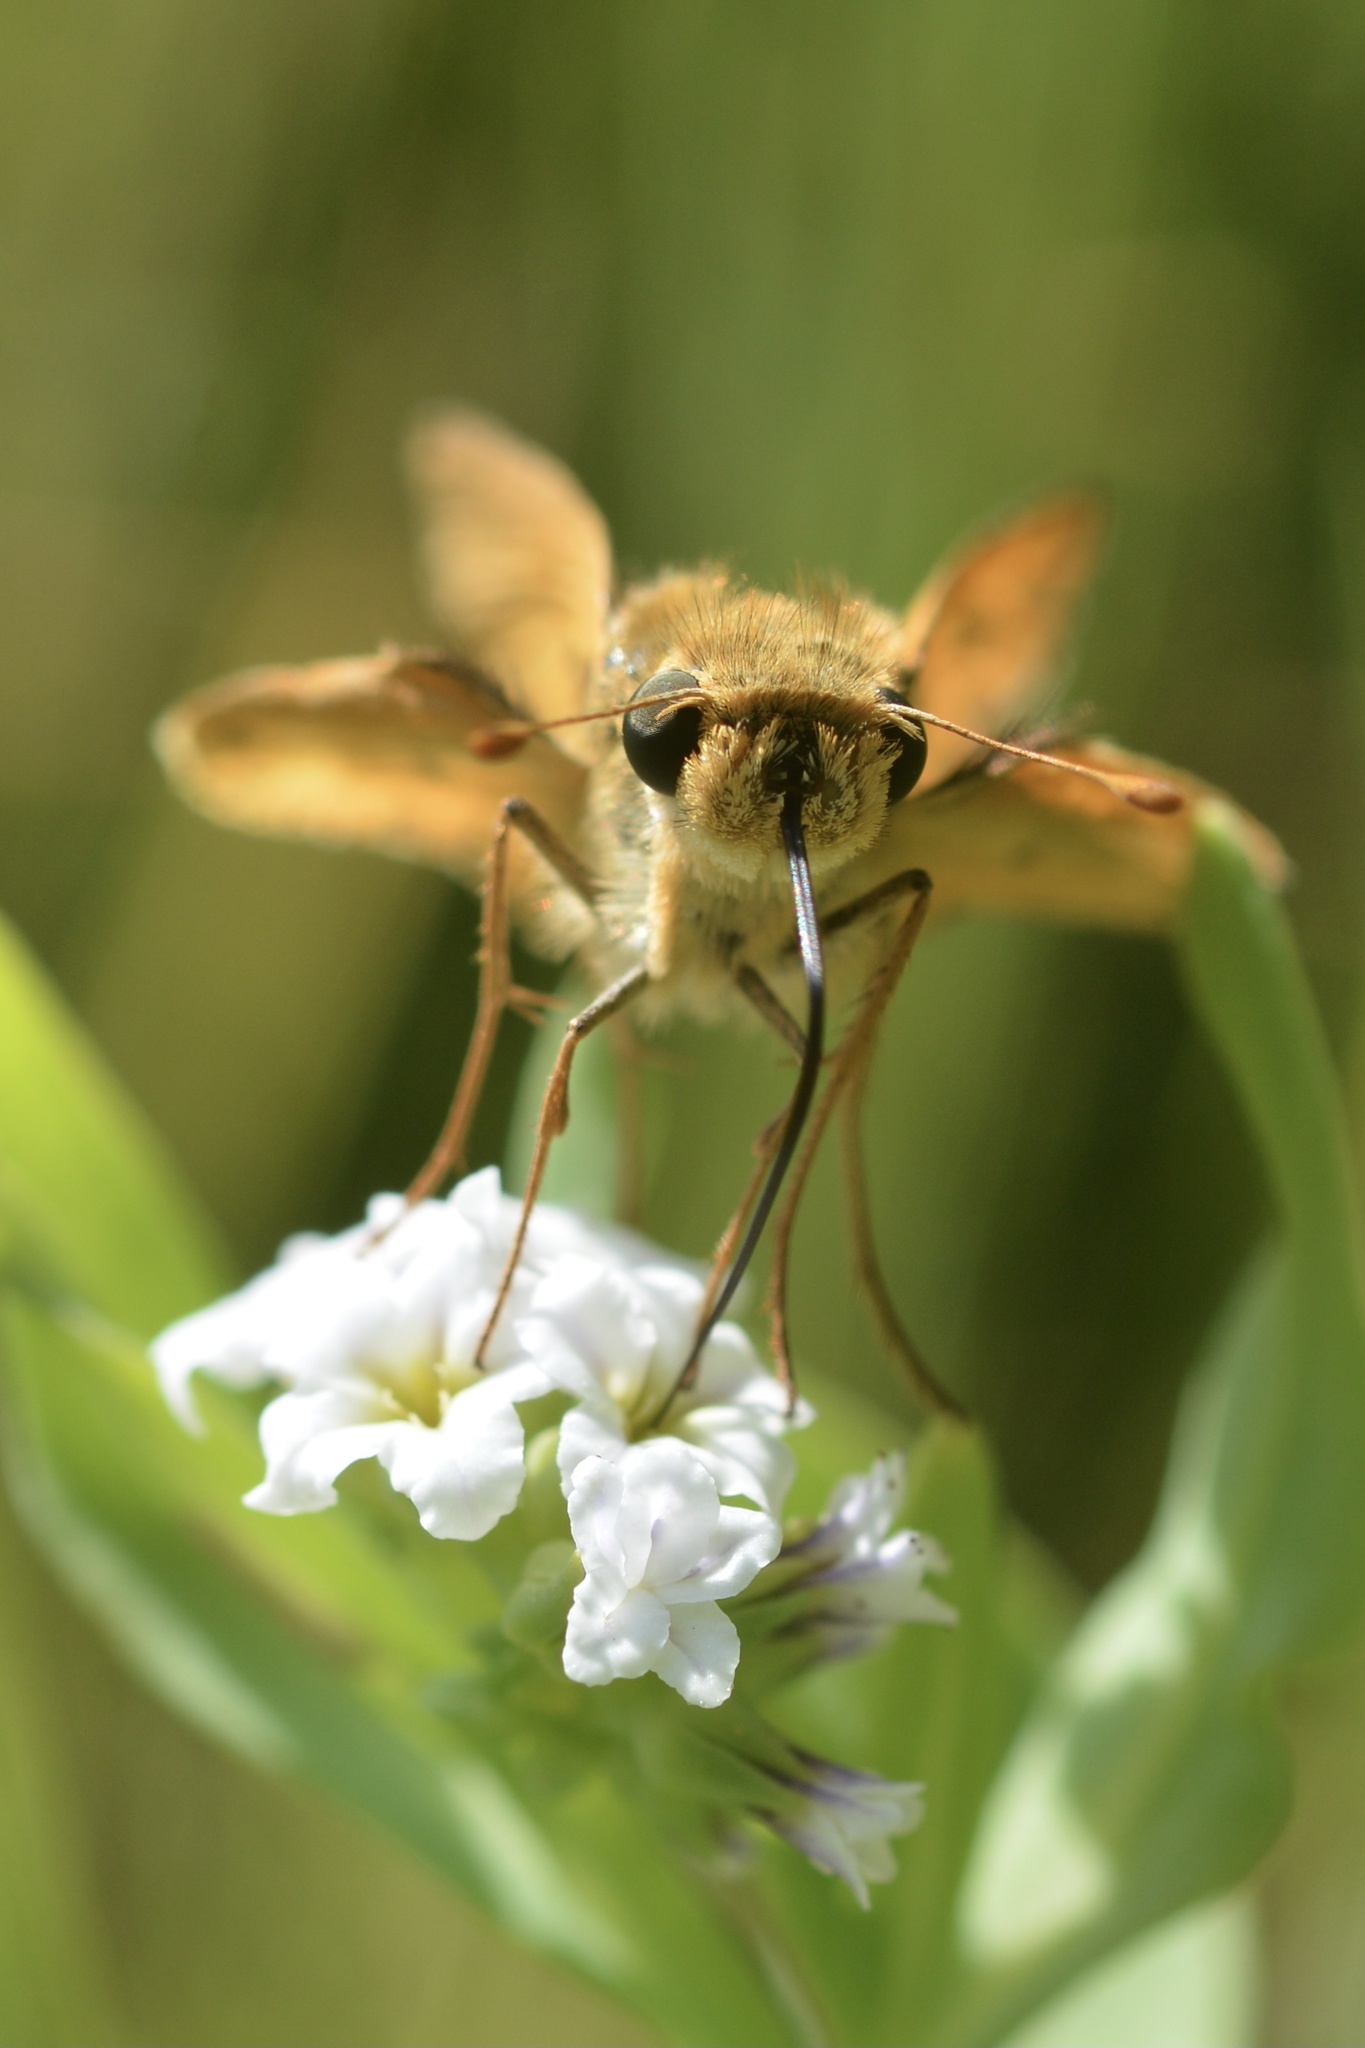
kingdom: Animalia
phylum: Arthropoda
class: Insecta
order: Lepidoptera
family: Hesperiidae
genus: Hylephila
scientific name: Hylephila phyleus
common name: Fiery skipper
